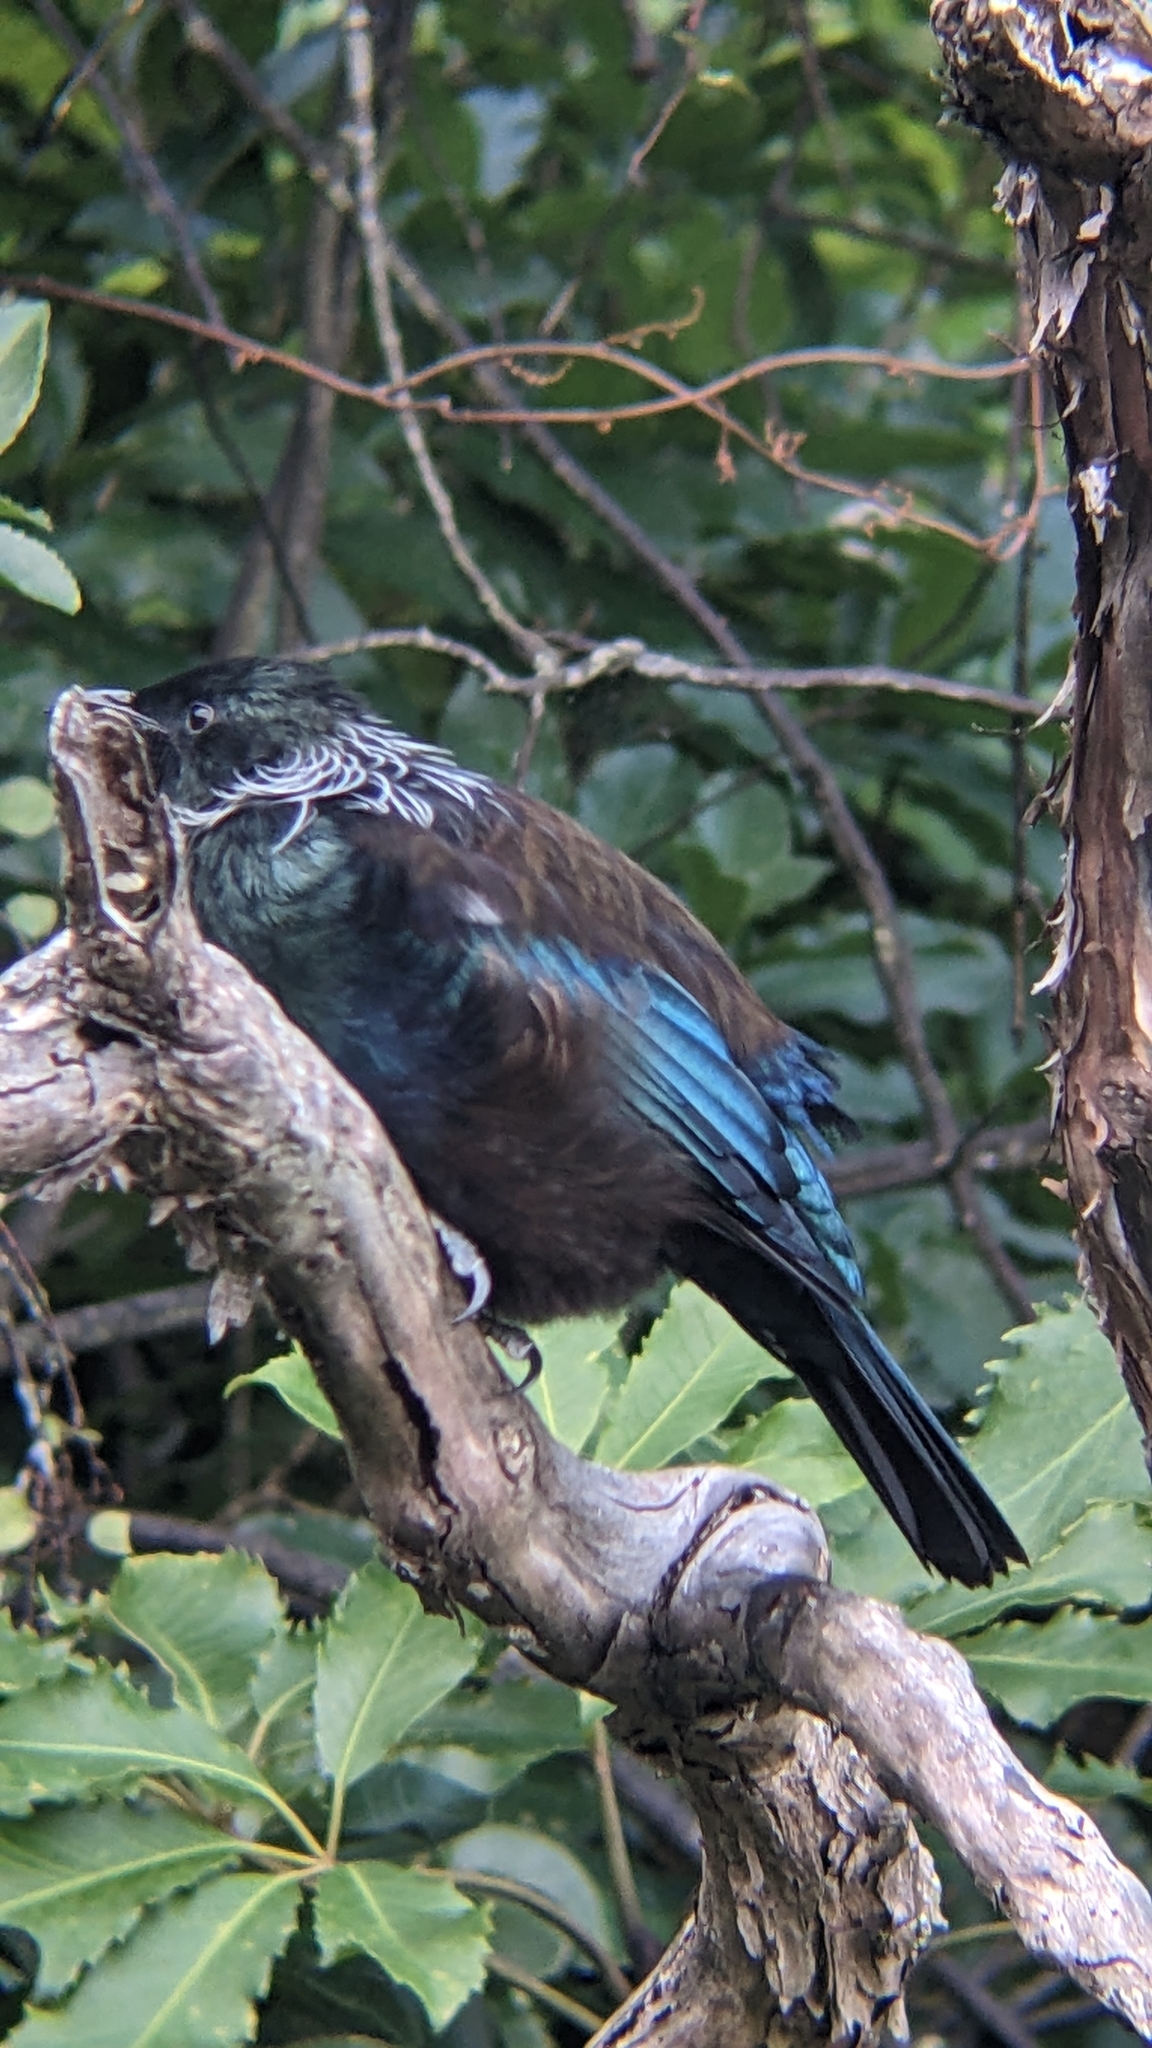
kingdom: Animalia
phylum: Chordata
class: Aves
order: Passeriformes
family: Meliphagidae
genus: Prosthemadera
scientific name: Prosthemadera novaeseelandiae
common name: Tui
